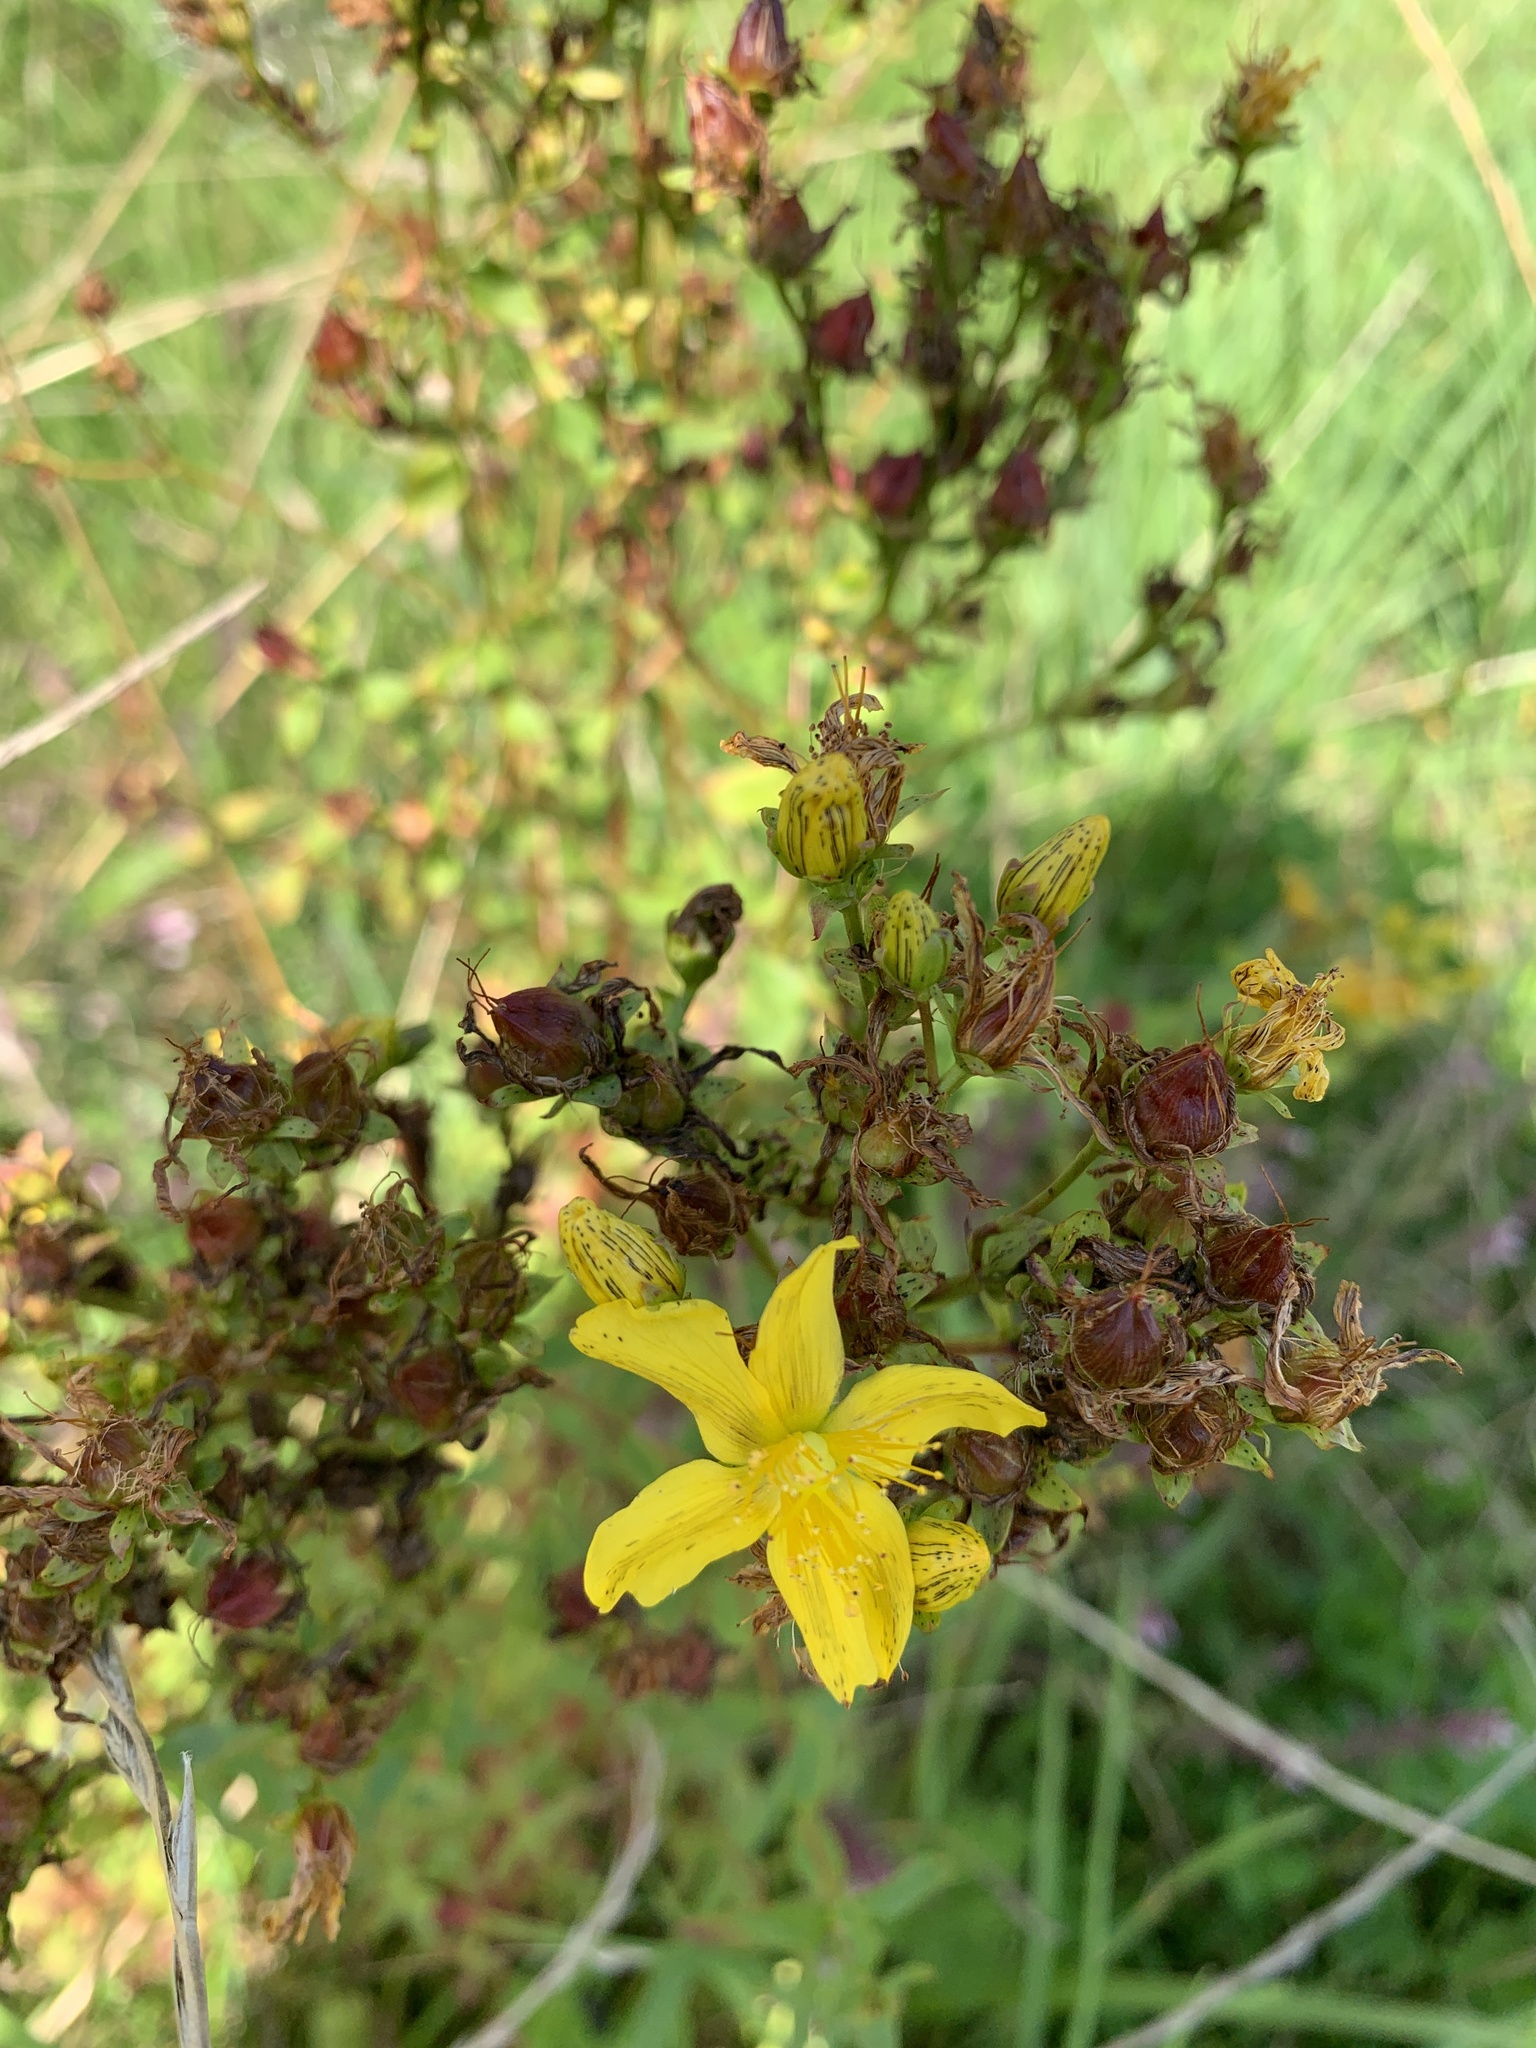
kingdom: Plantae
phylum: Tracheophyta
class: Magnoliopsida
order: Malpighiales
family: Hypericaceae
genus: Hypericum
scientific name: Hypericum perforatum
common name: Common st. johnswort
